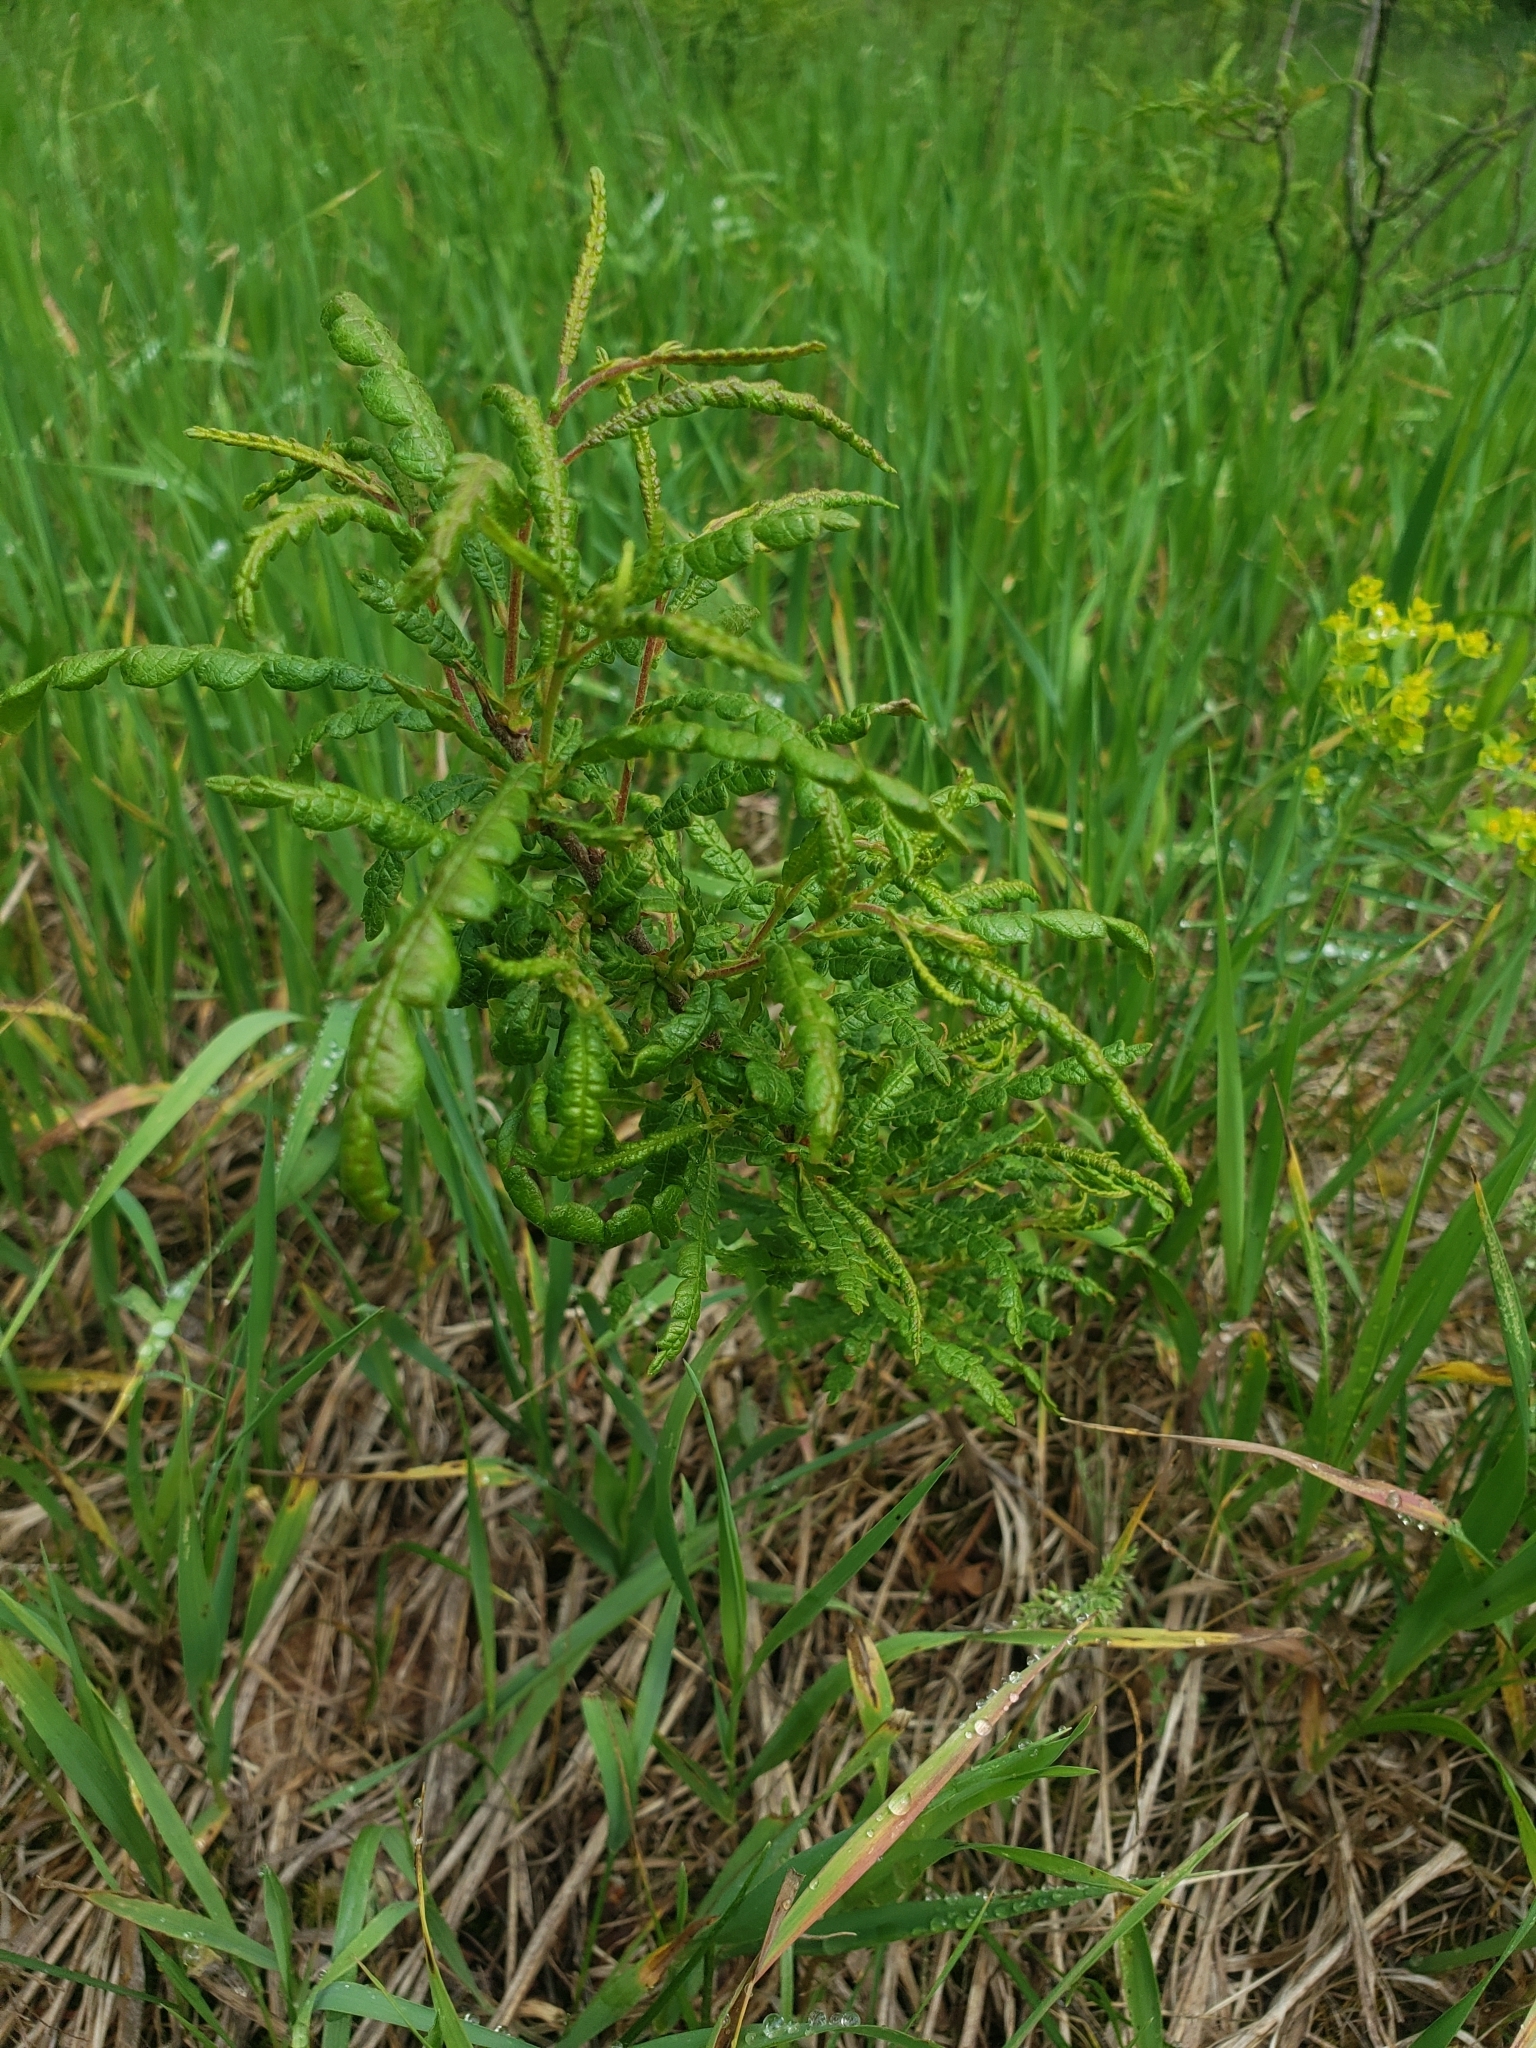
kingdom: Plantae
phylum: Tracheophyta
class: Magnoliopsida
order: Fagales
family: Myricaceae
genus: Comptonia
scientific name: Comptonia peregrina
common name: Sweet-fern
